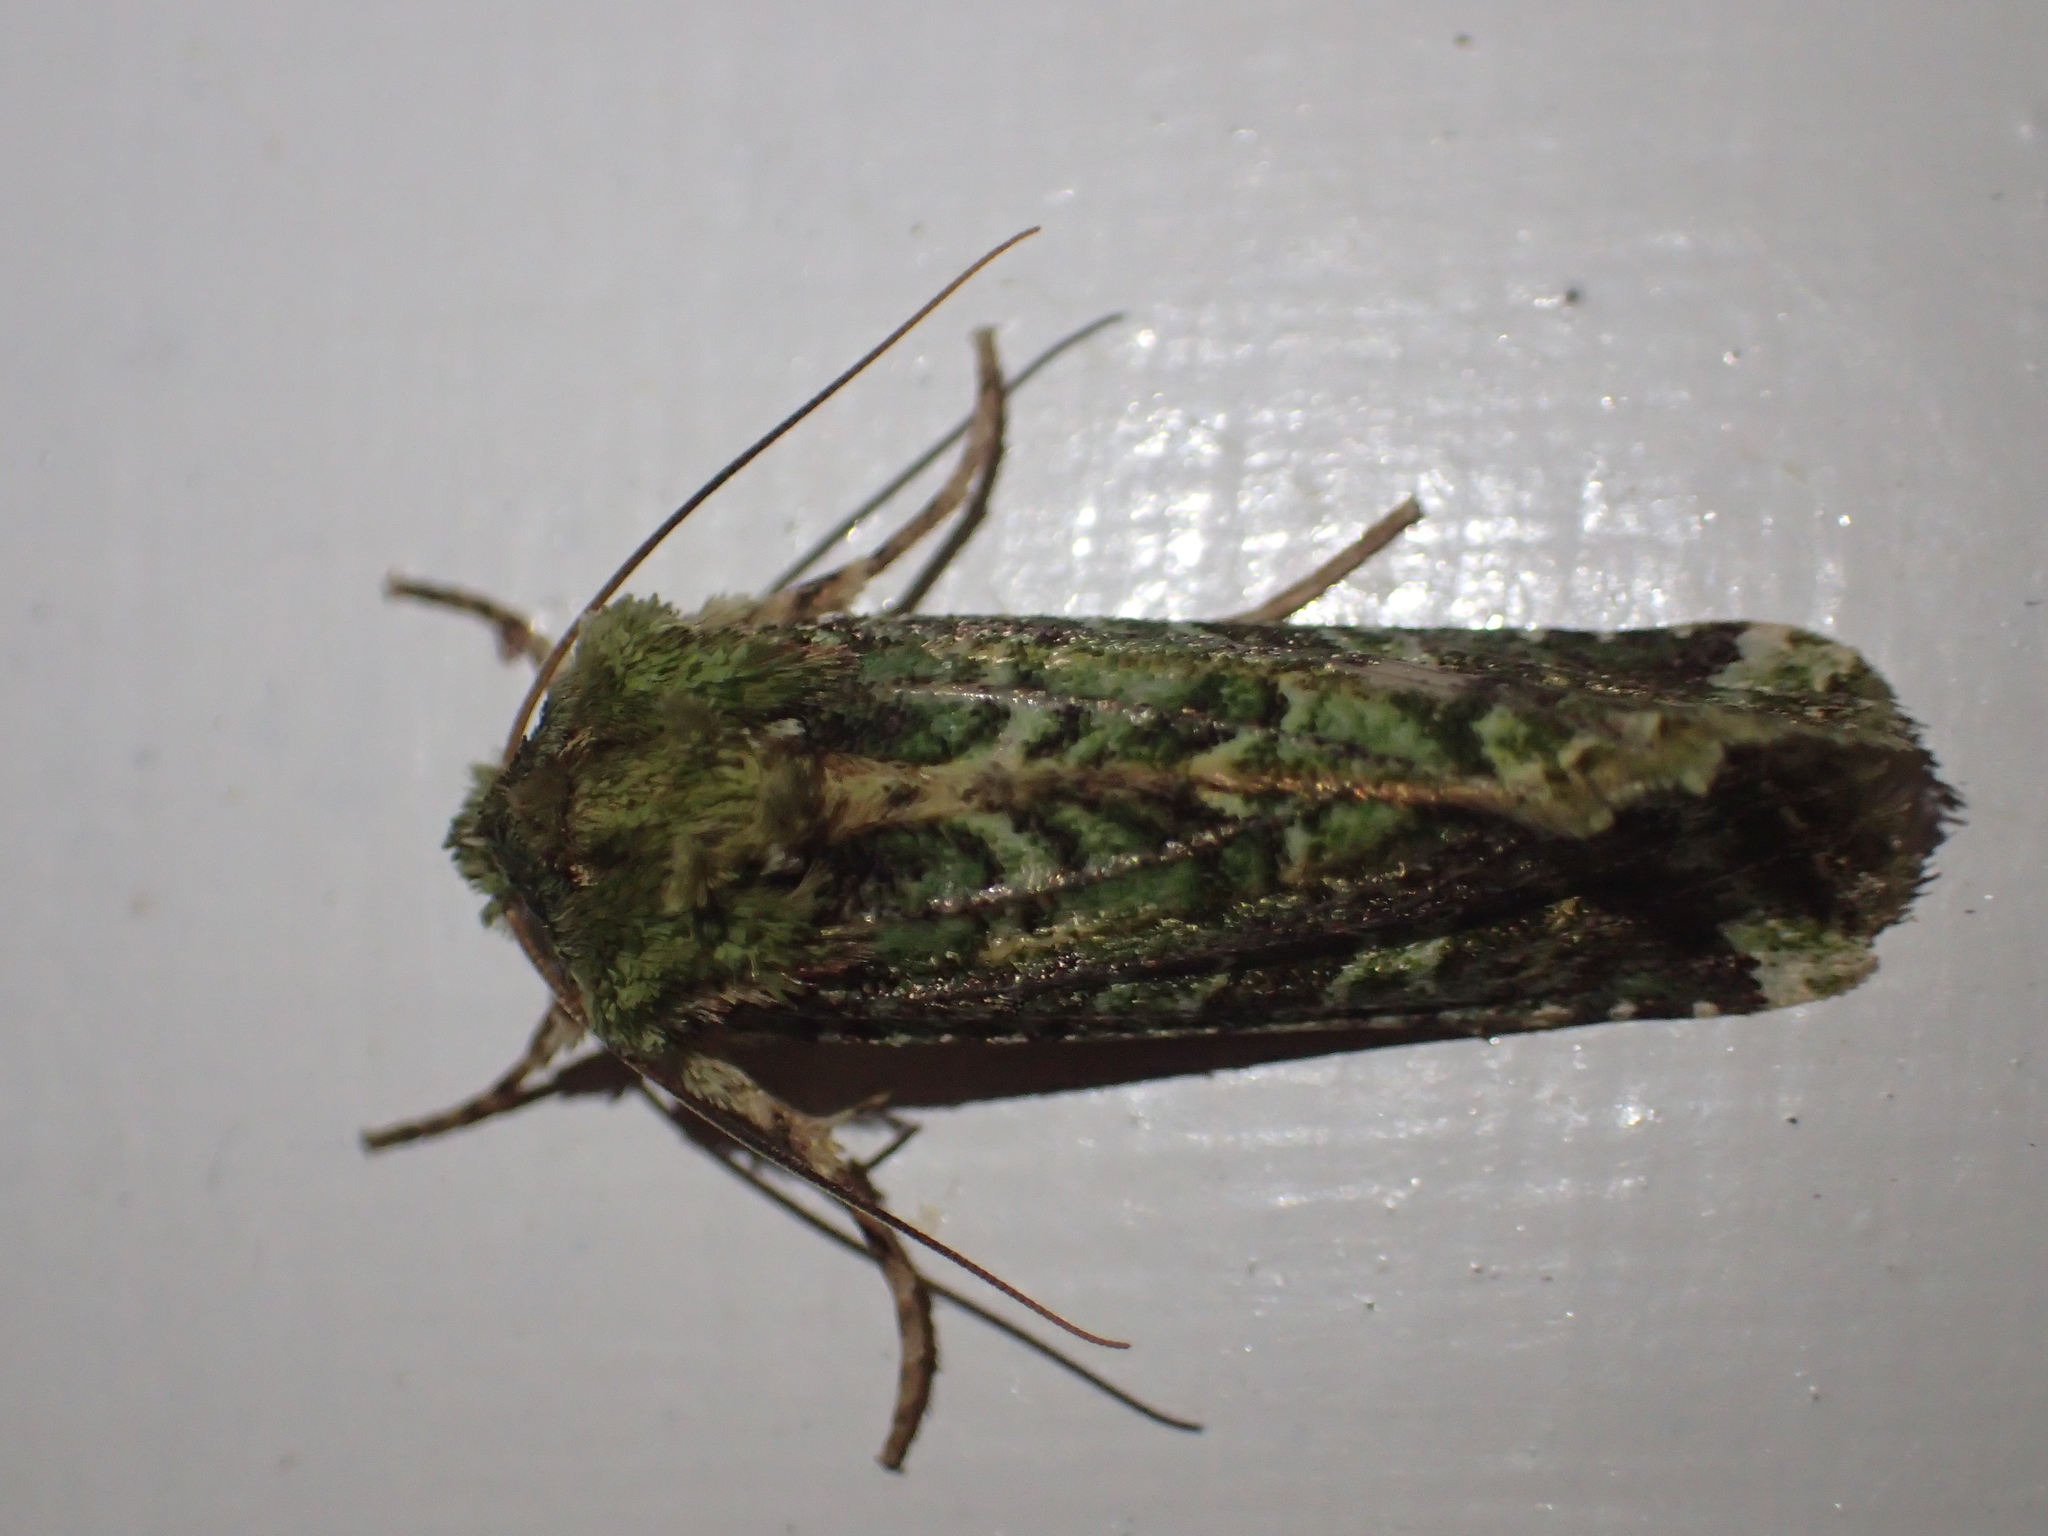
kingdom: Animalia
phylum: Arthropoda
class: Insecta
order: Lepidoptera
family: Noctuidae
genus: Feredayia
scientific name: Feredayia grammosa
